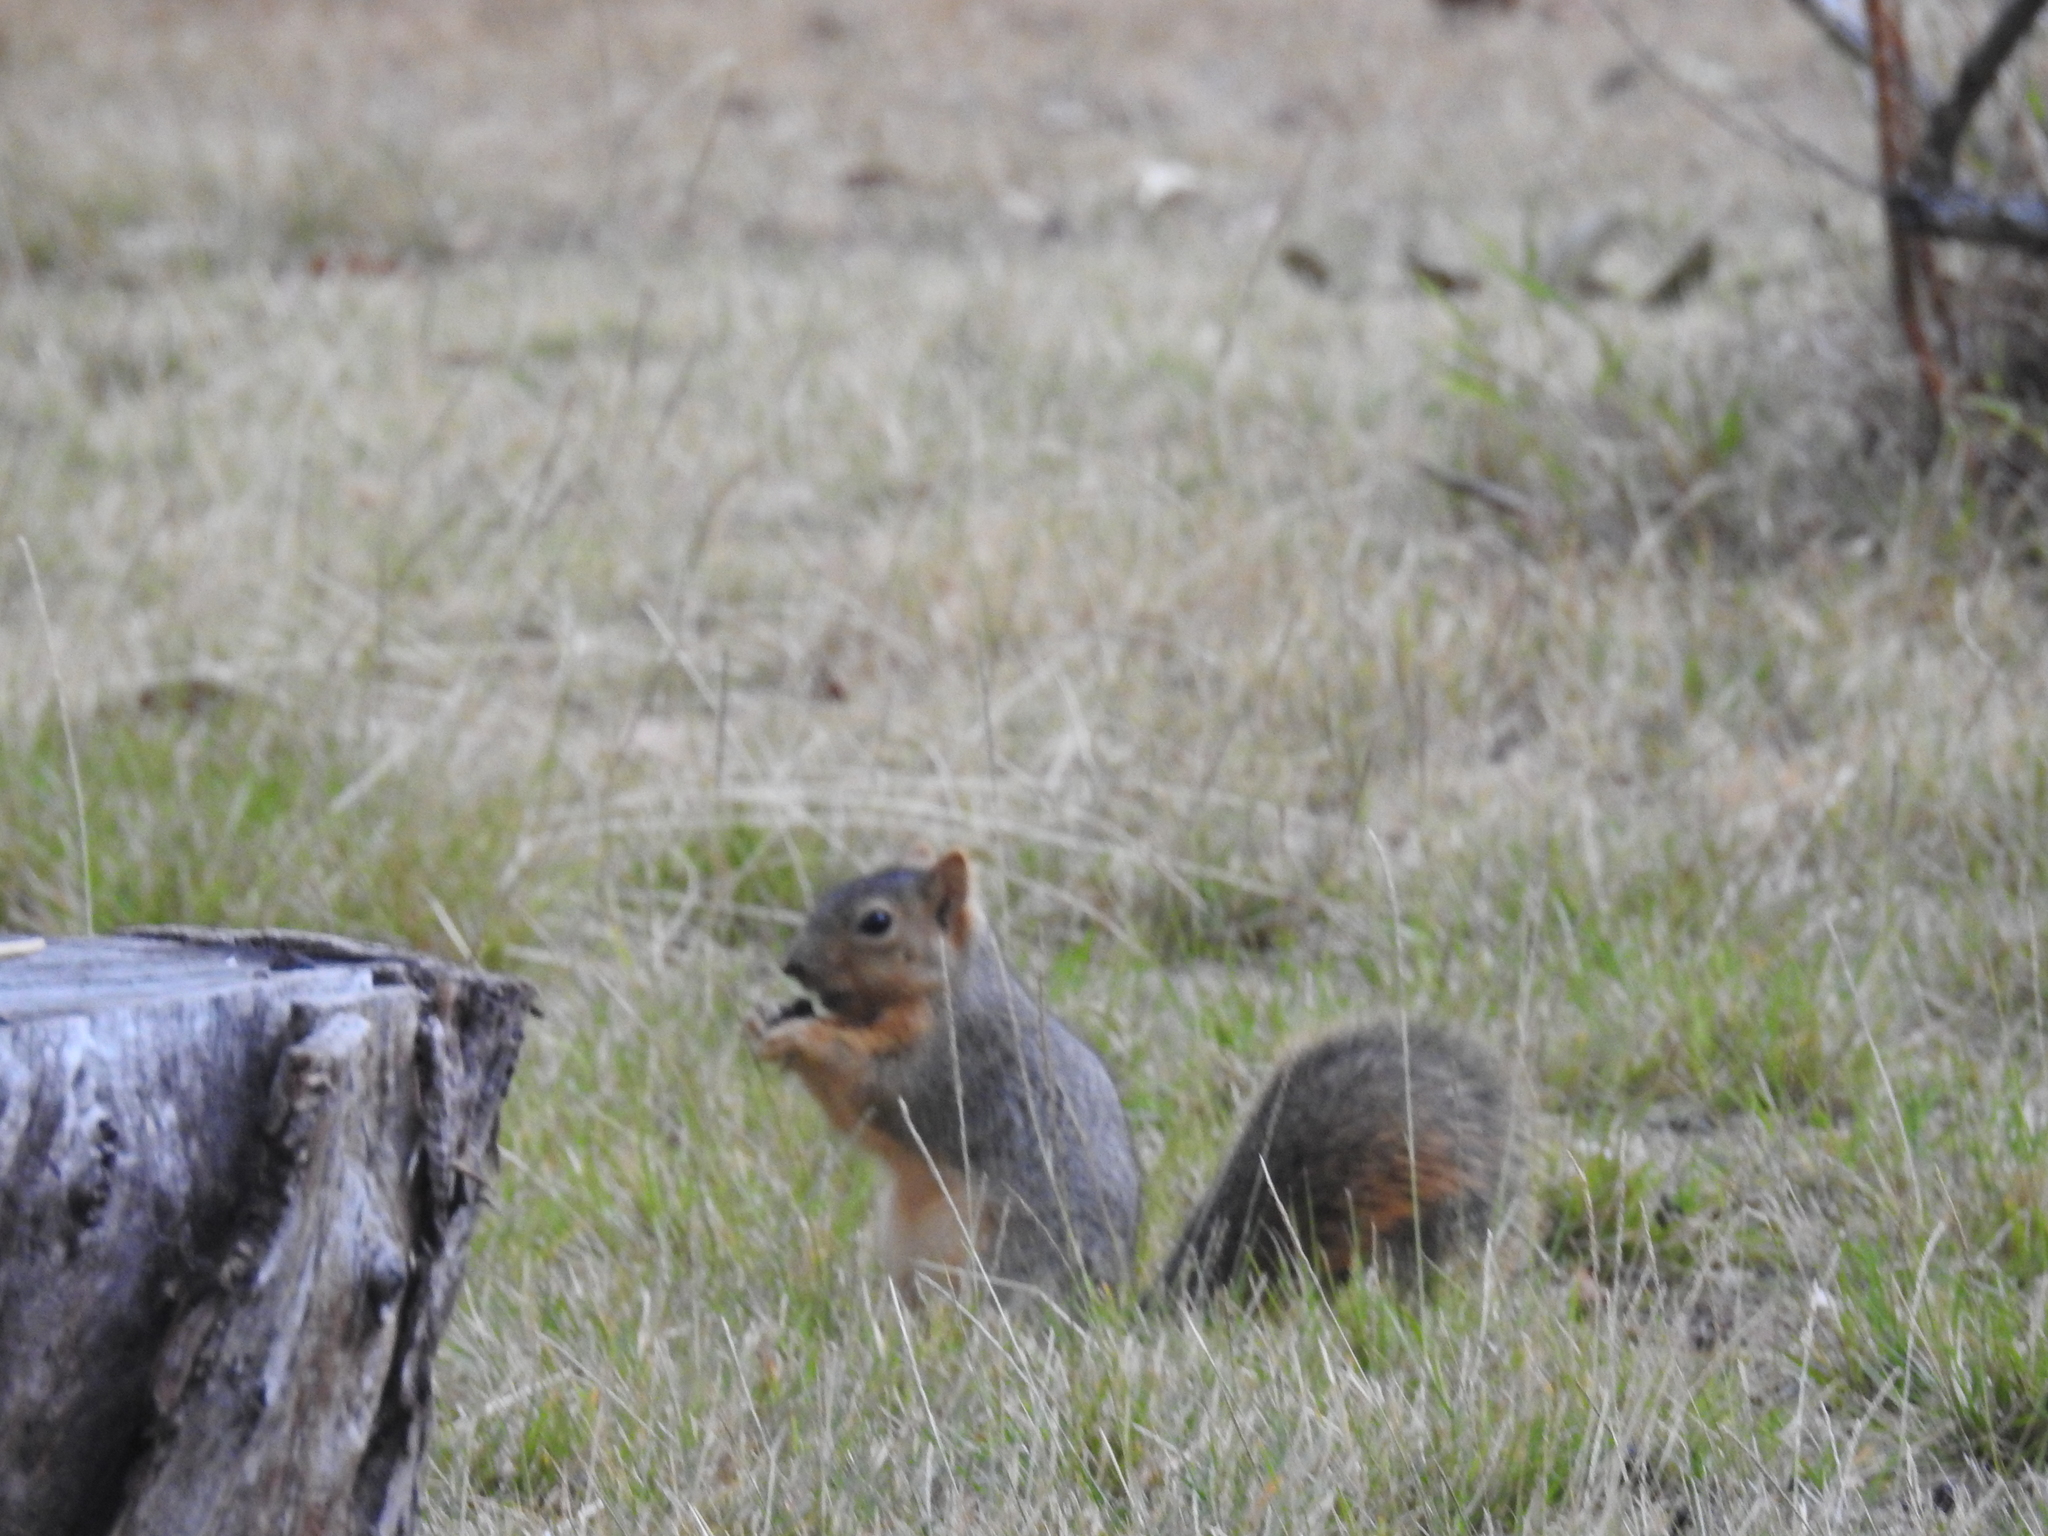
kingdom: Animalia
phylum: Chordata
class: Mammalia
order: Rodentia
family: Sciuridae
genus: Sciurus
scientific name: Sciurus niger
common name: Fox squirrel
